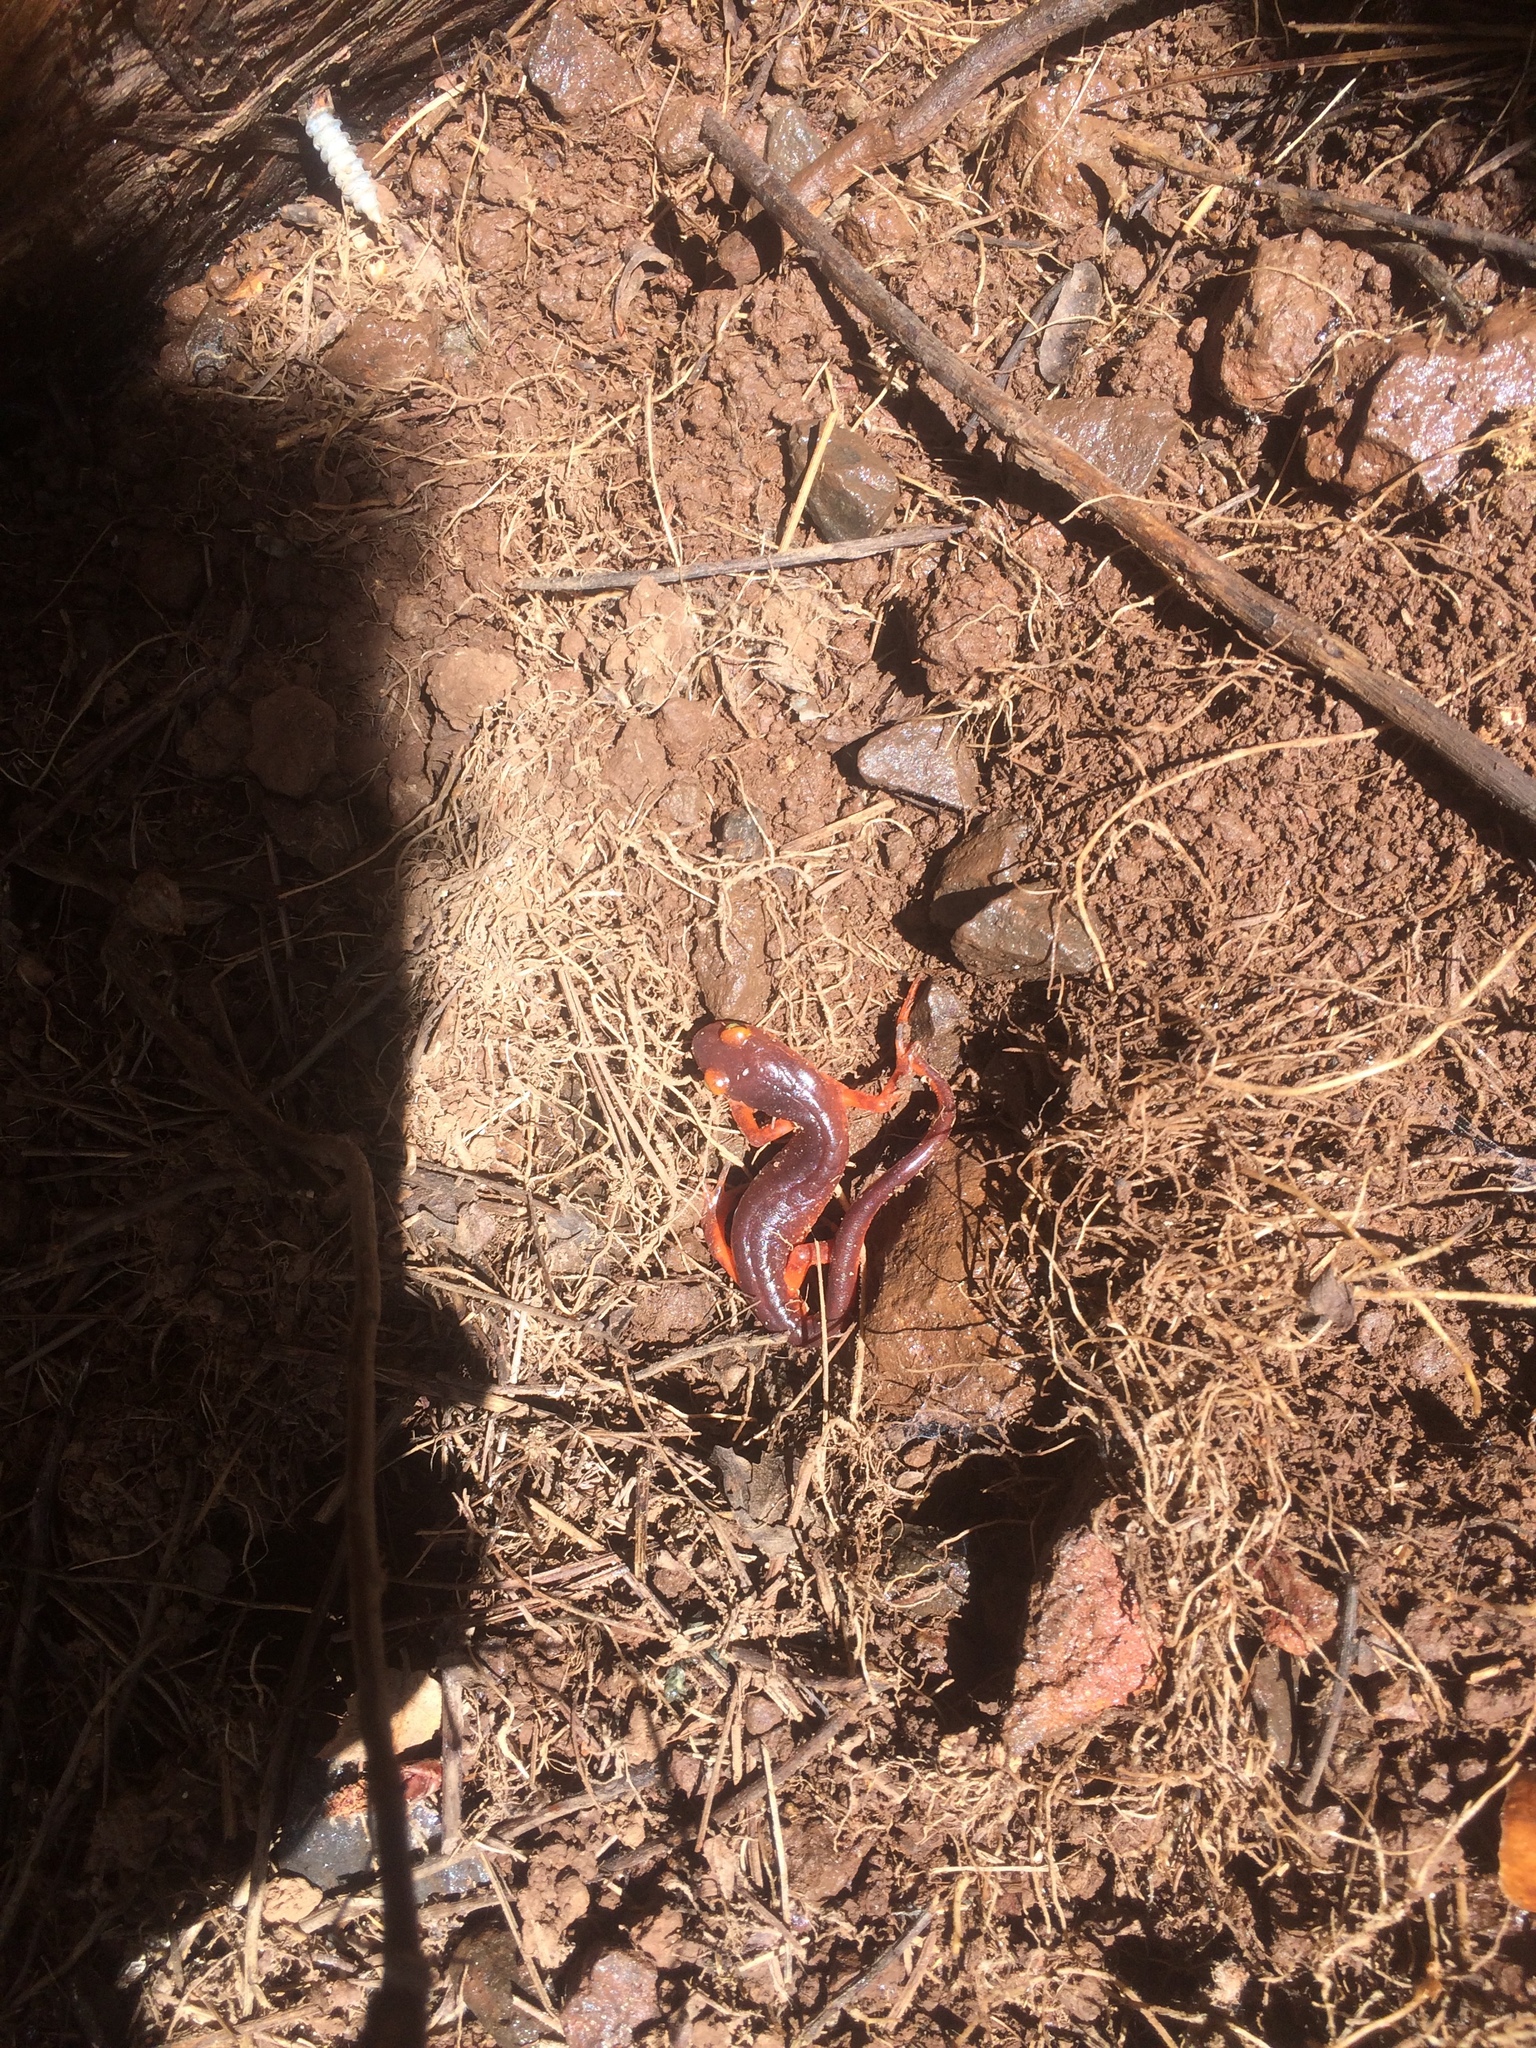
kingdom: Animalia
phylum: Chordata
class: Amphibia
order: Caudata
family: Plethodontidae
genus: Ensatina
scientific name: Ensatina eschscholtzii
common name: Ensatina
